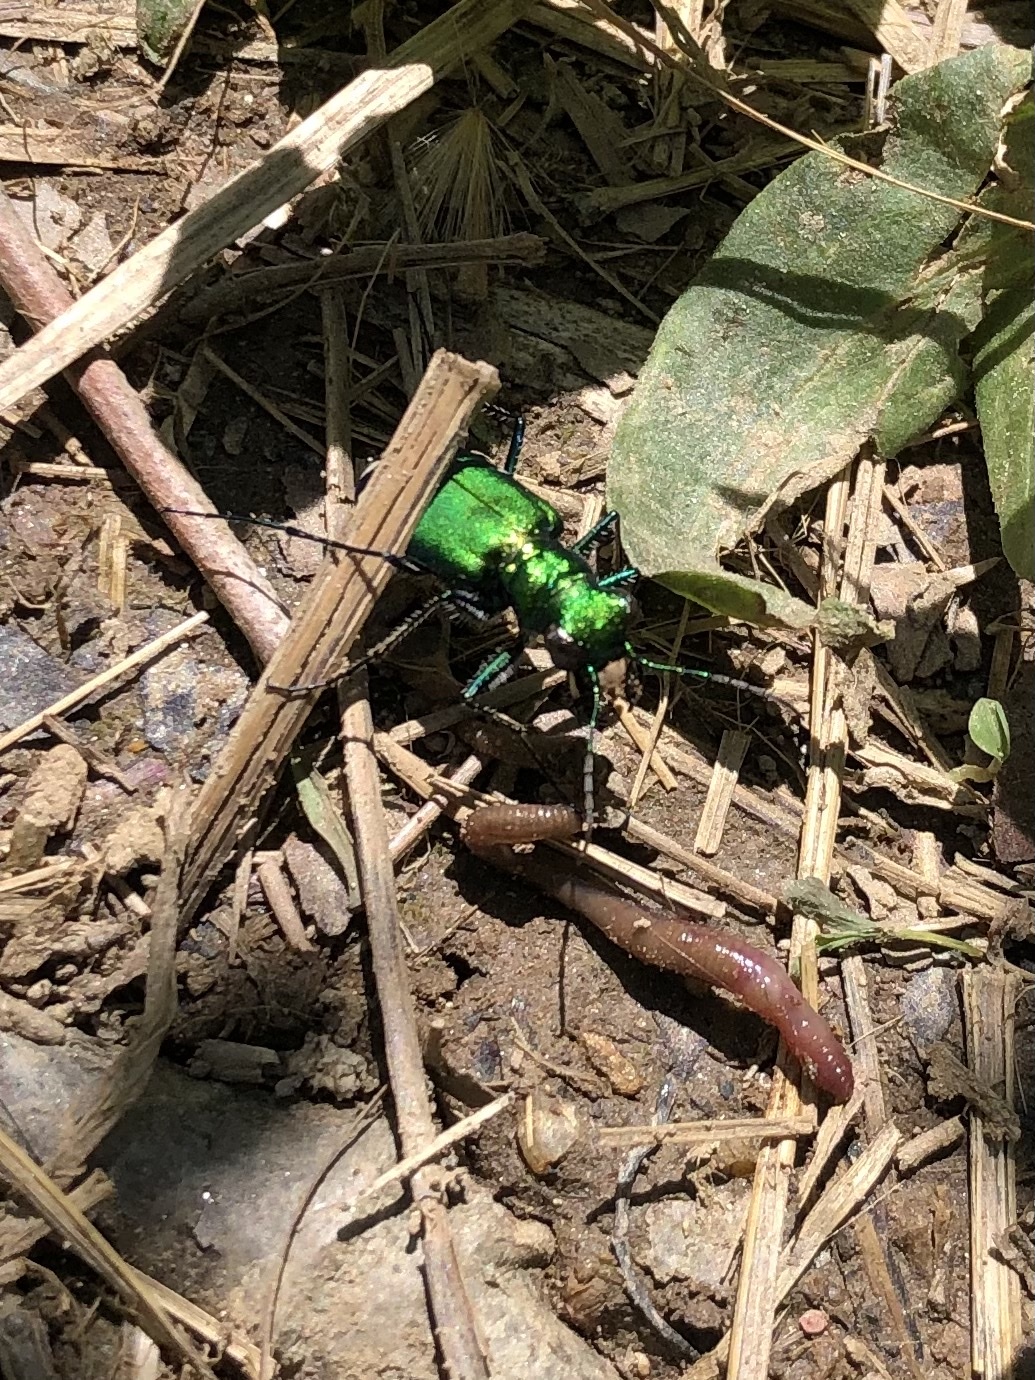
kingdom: Animalia
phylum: Arthropoda
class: Insecta
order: Coleoptera
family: Carabidae
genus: Cicindela
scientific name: Cicindela sexguttata
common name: Six-spotted tiger beetle
